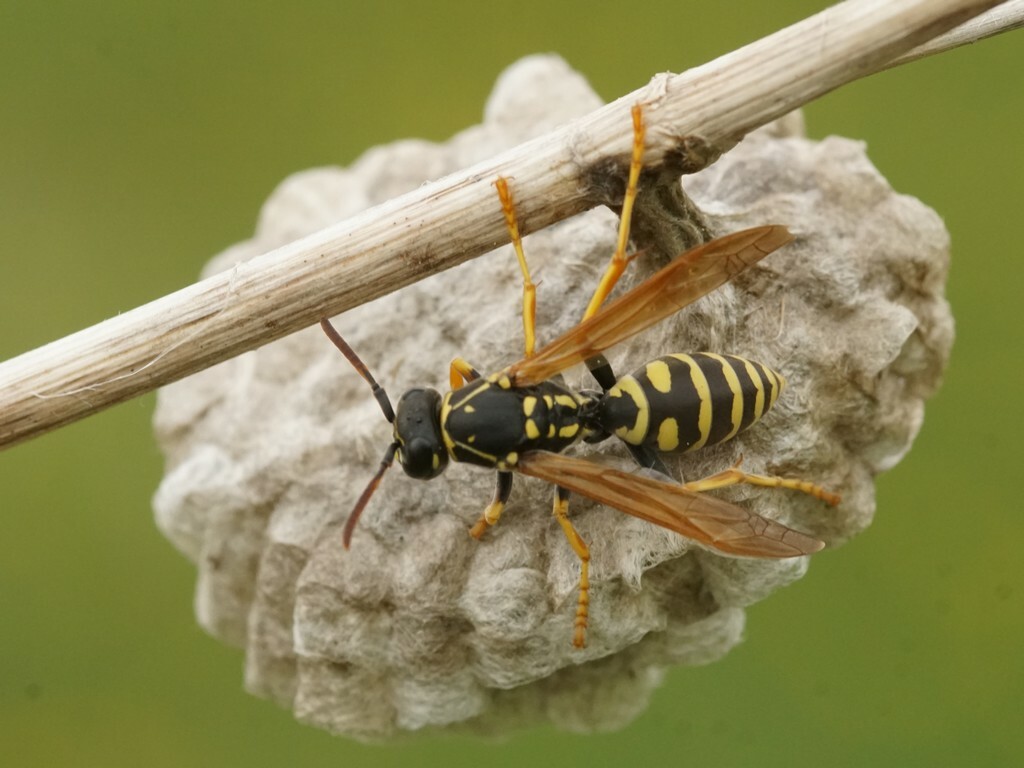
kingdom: Animalia
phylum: Arthropoda
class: Insecta
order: Hymenoptera
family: Eumenidae
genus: Polistes
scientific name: Polistes nimpha
